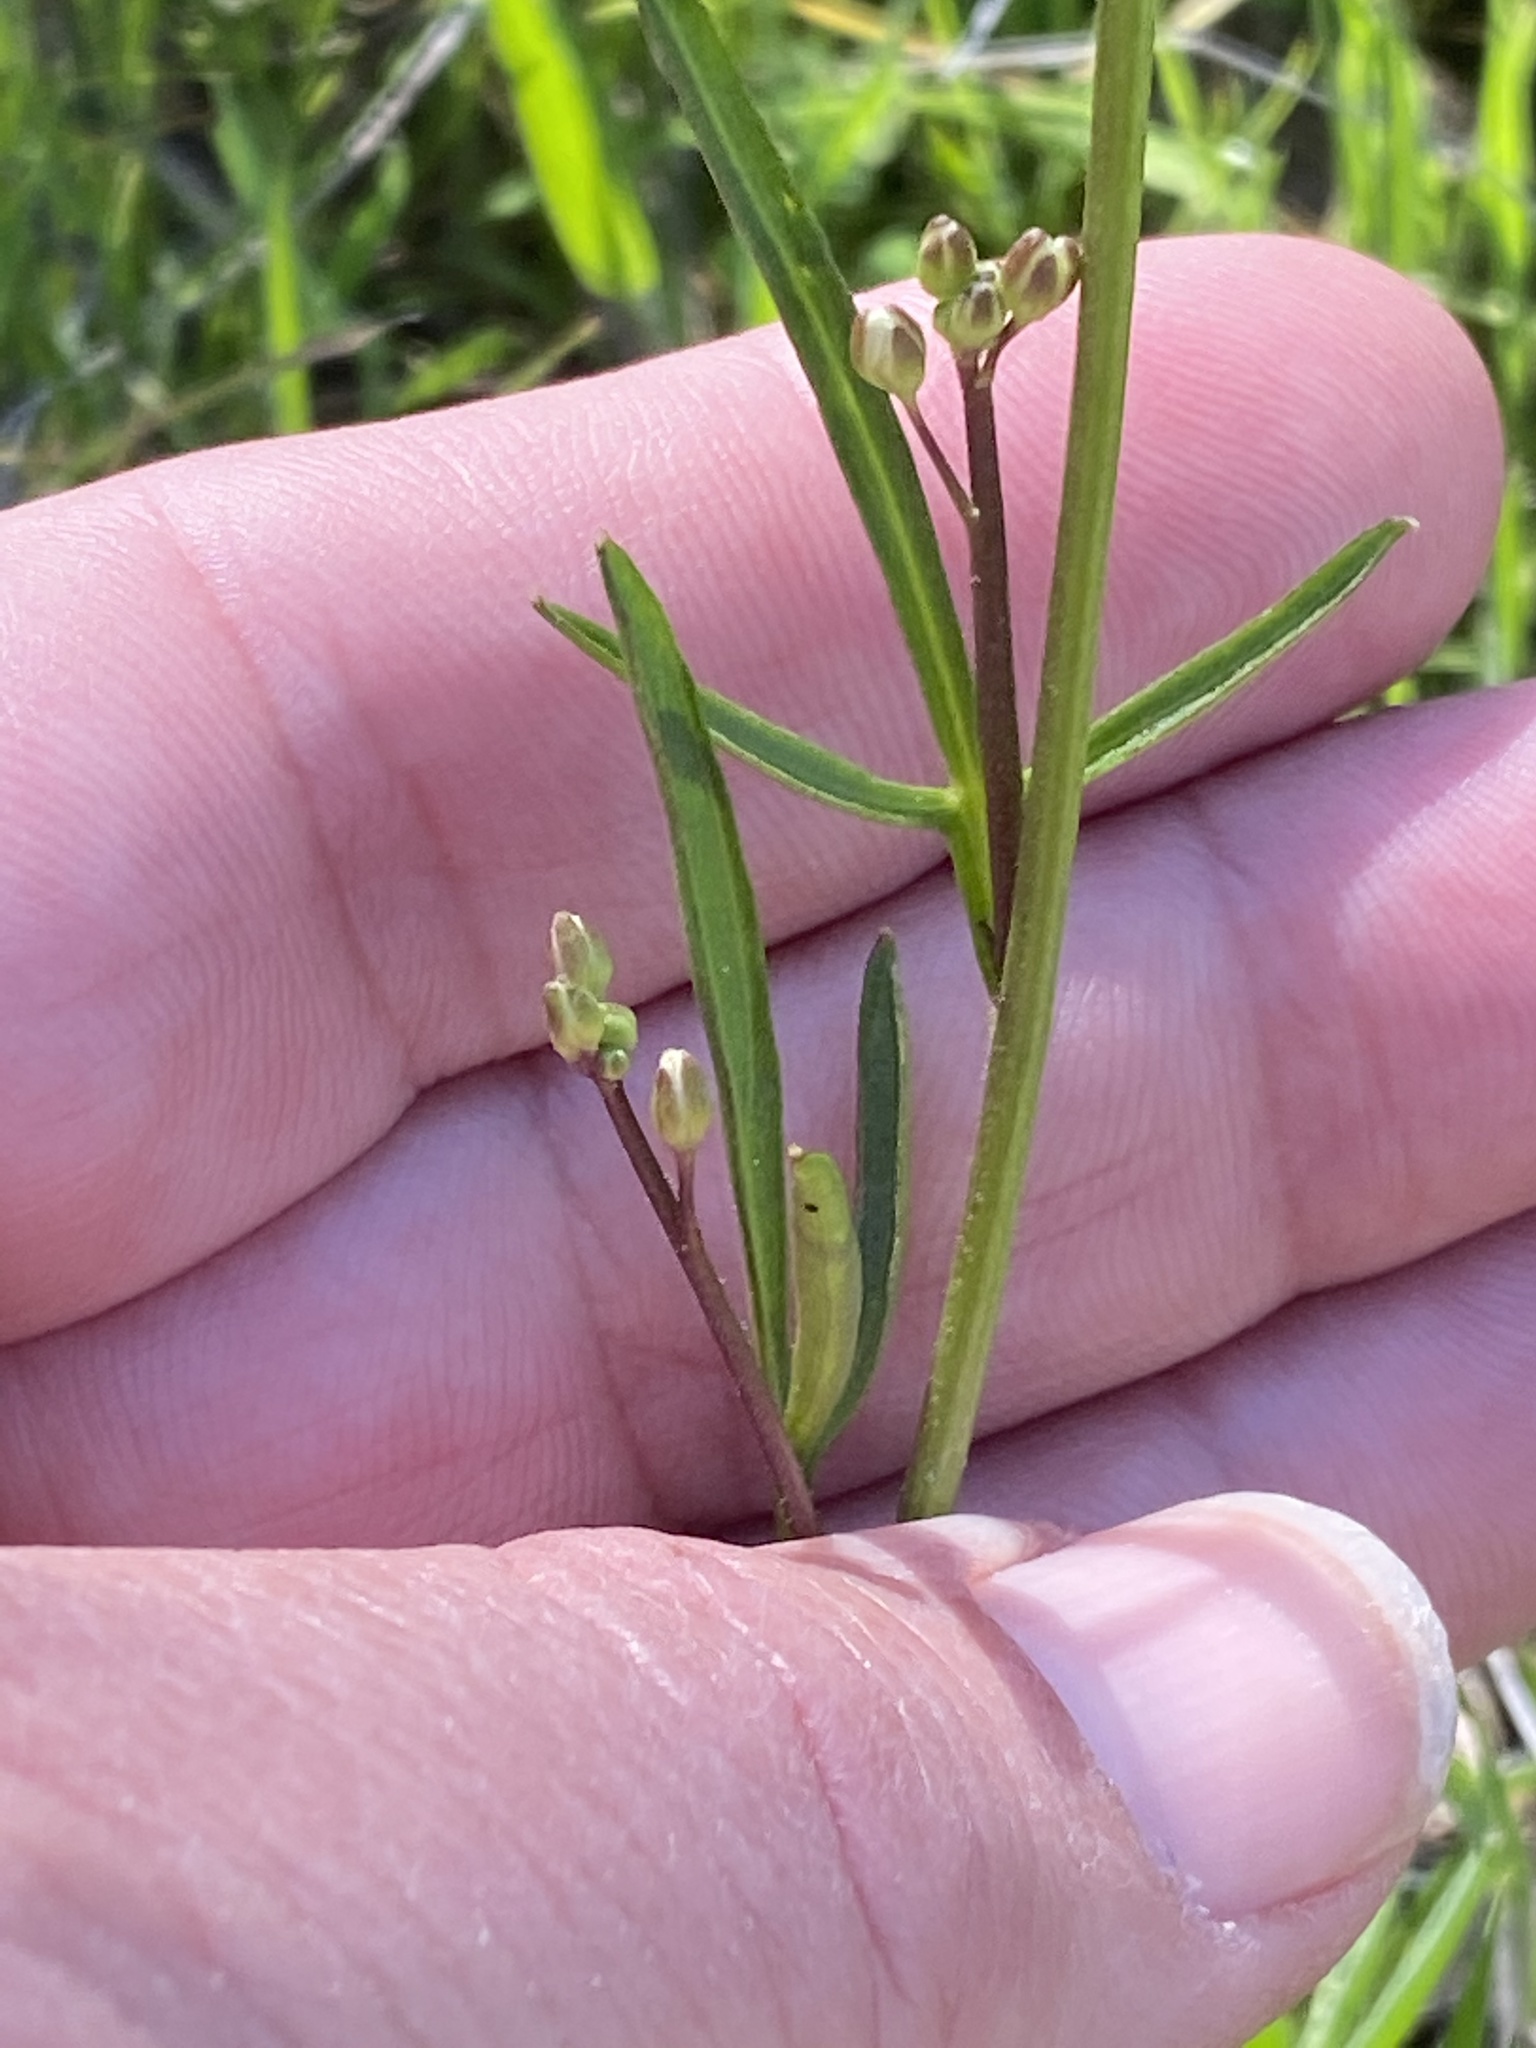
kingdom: Plantae
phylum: Tracheophyta
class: Magnoliopsida
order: Brassicales
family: Brassicaceae
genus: Cardamine
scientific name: Cardamine californica
